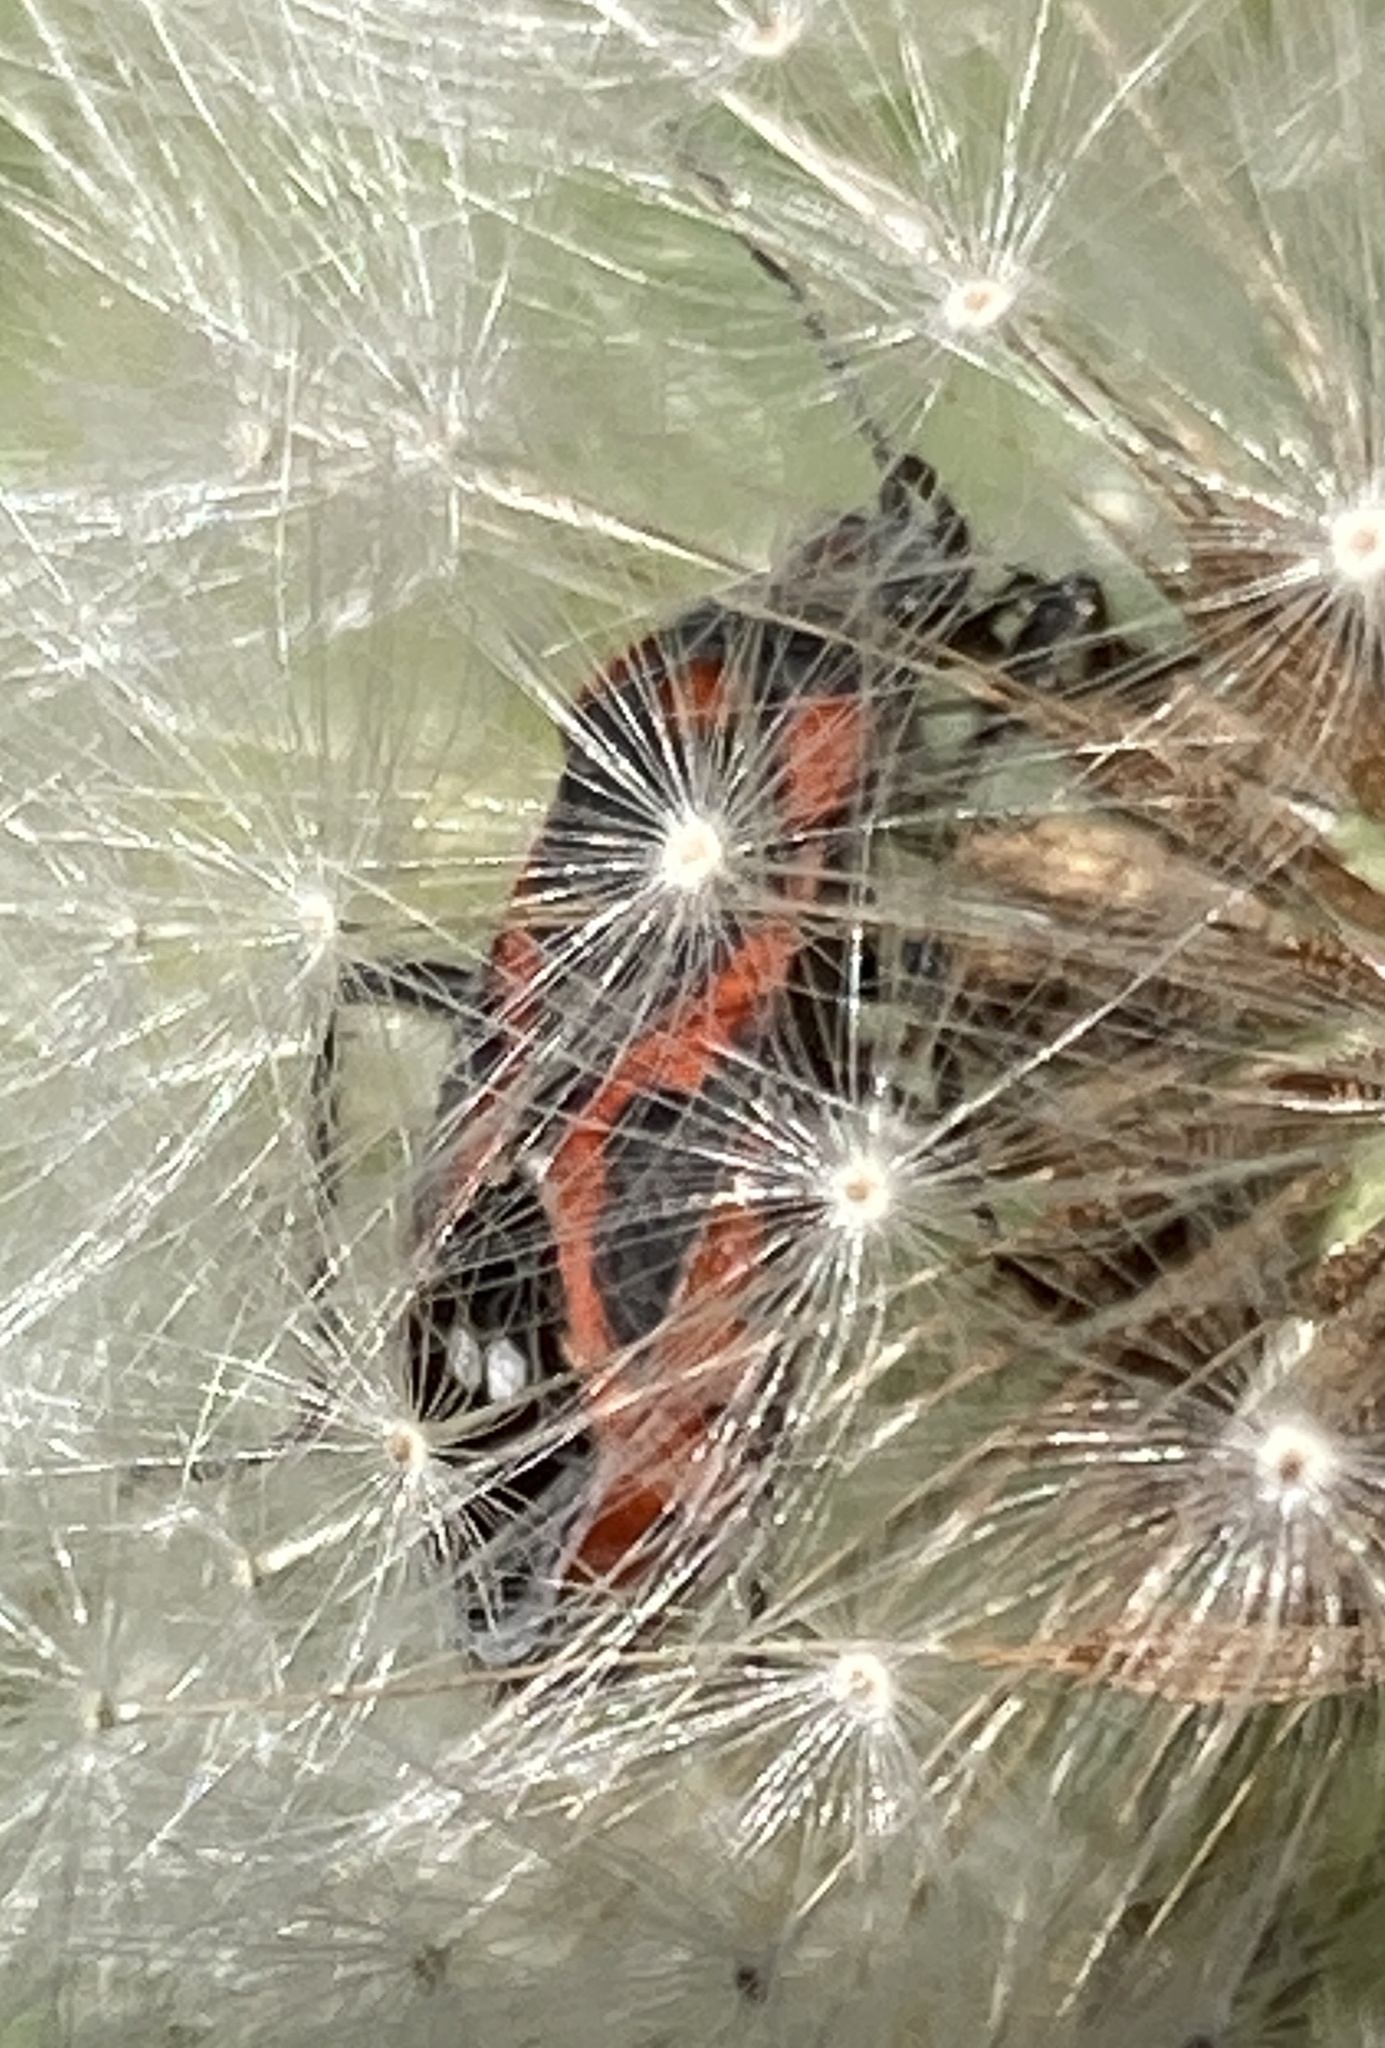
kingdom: Animalia
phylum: Arthropoda
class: Insecta
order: Hemiptera
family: Lygaeidae
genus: Lygaeus
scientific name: Lygaeus kalmii
